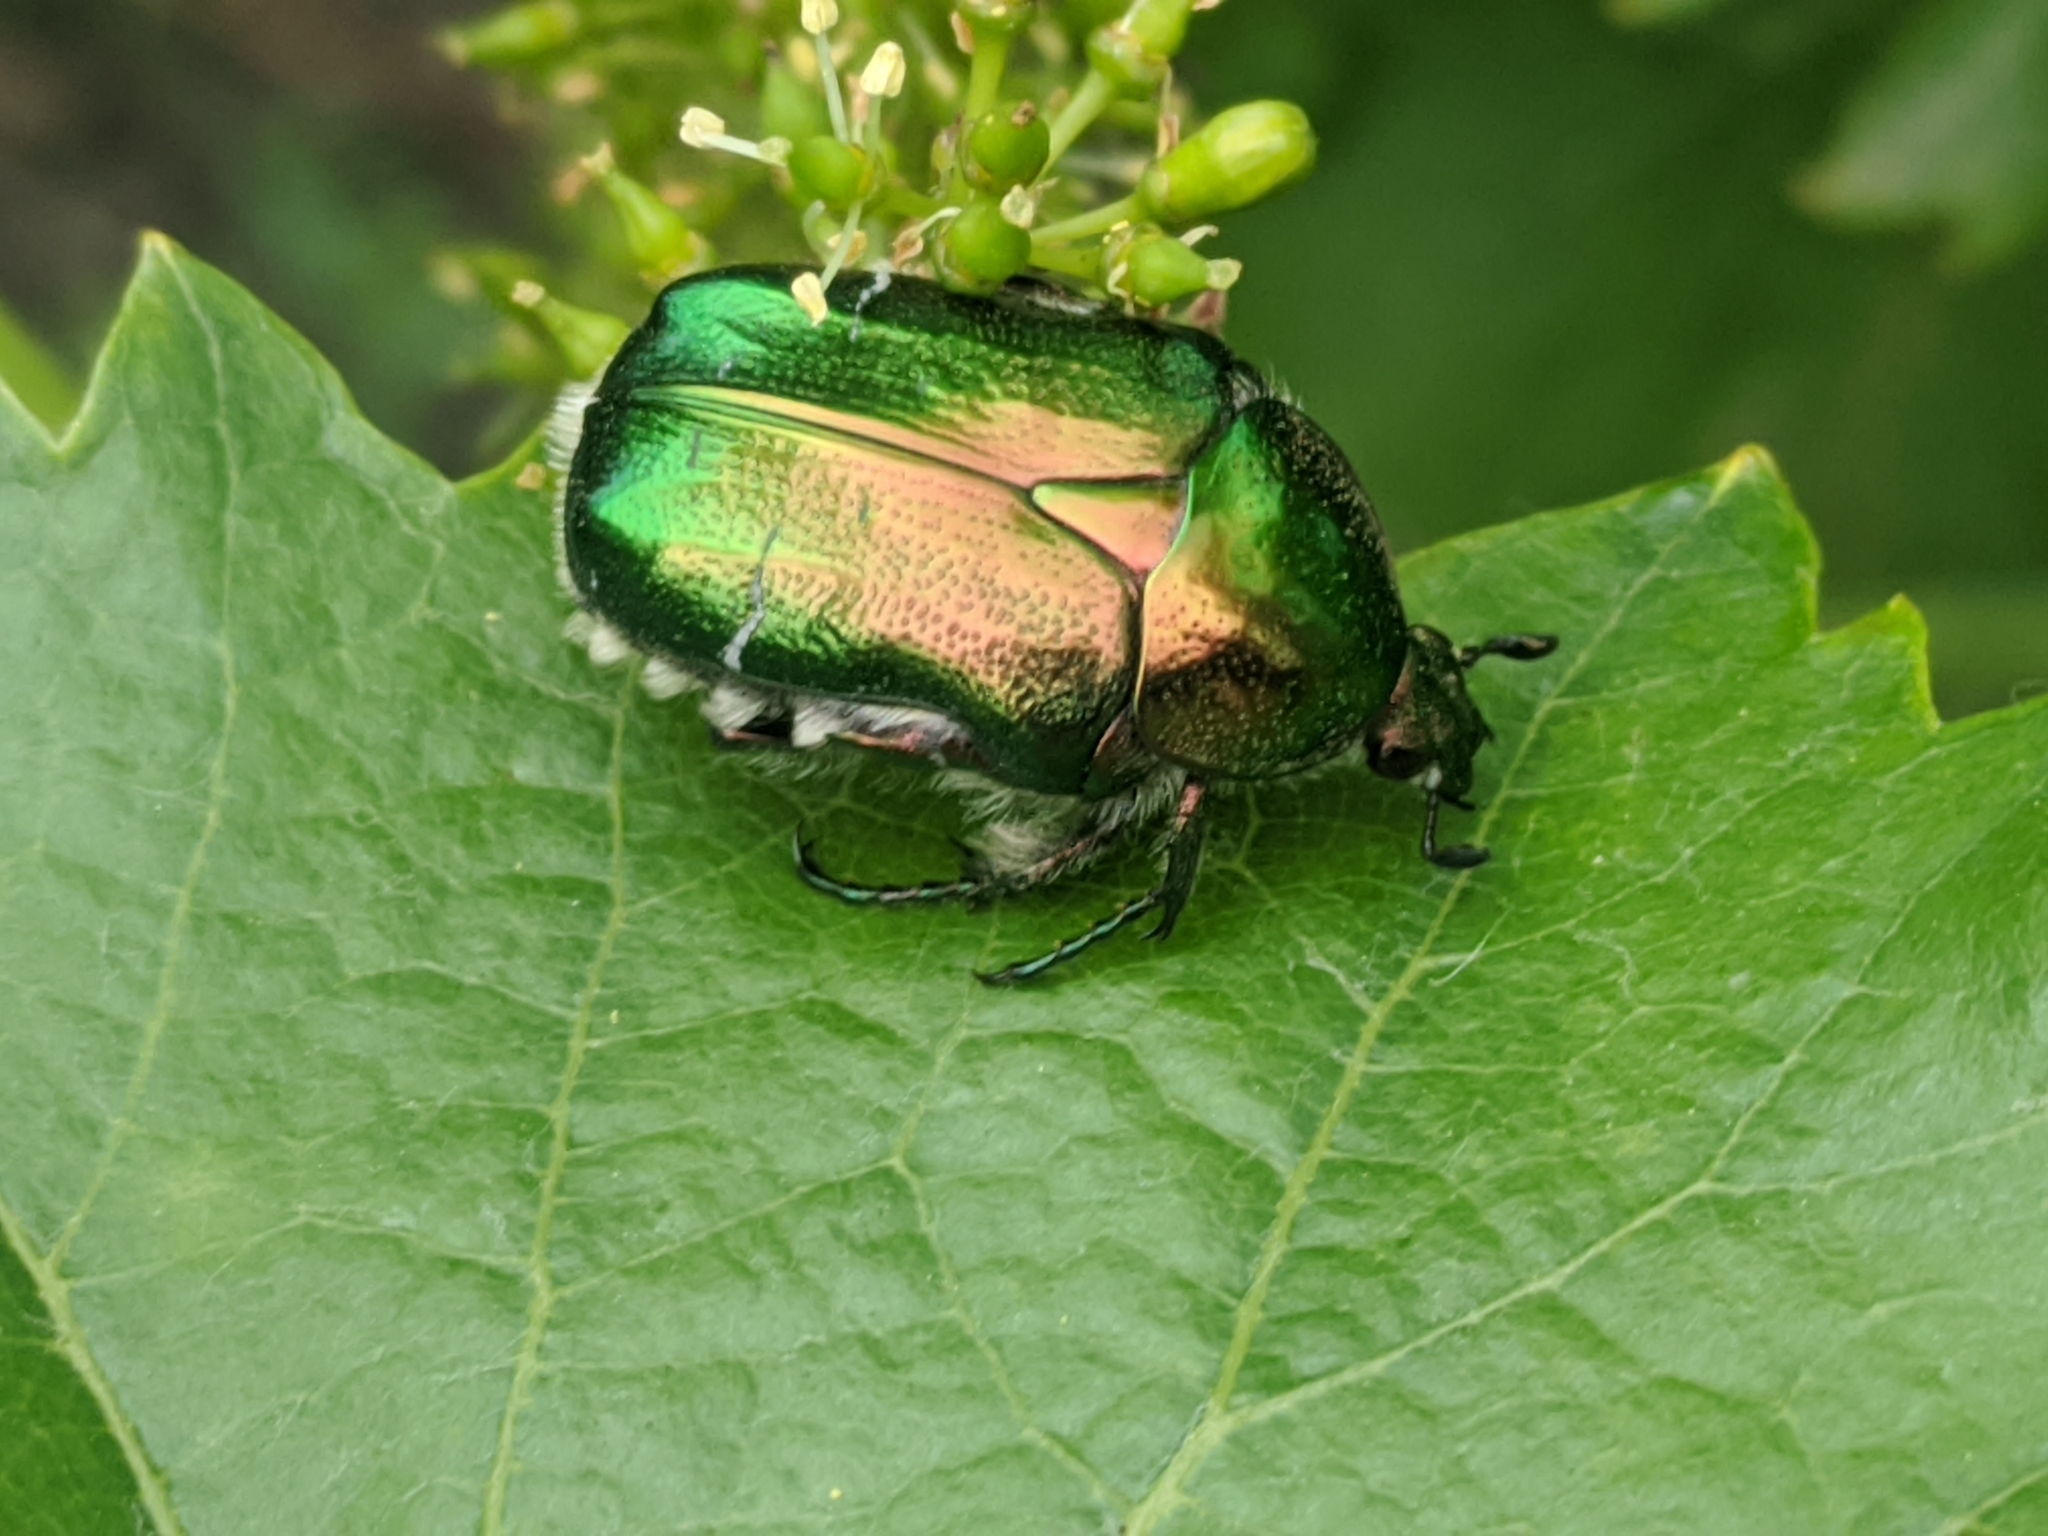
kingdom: Animalia
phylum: Arthropoda
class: Insecta
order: Coleoptera
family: Scarabaeidae
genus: Cetonia
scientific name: Cetonia aurata
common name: Rose chafer
